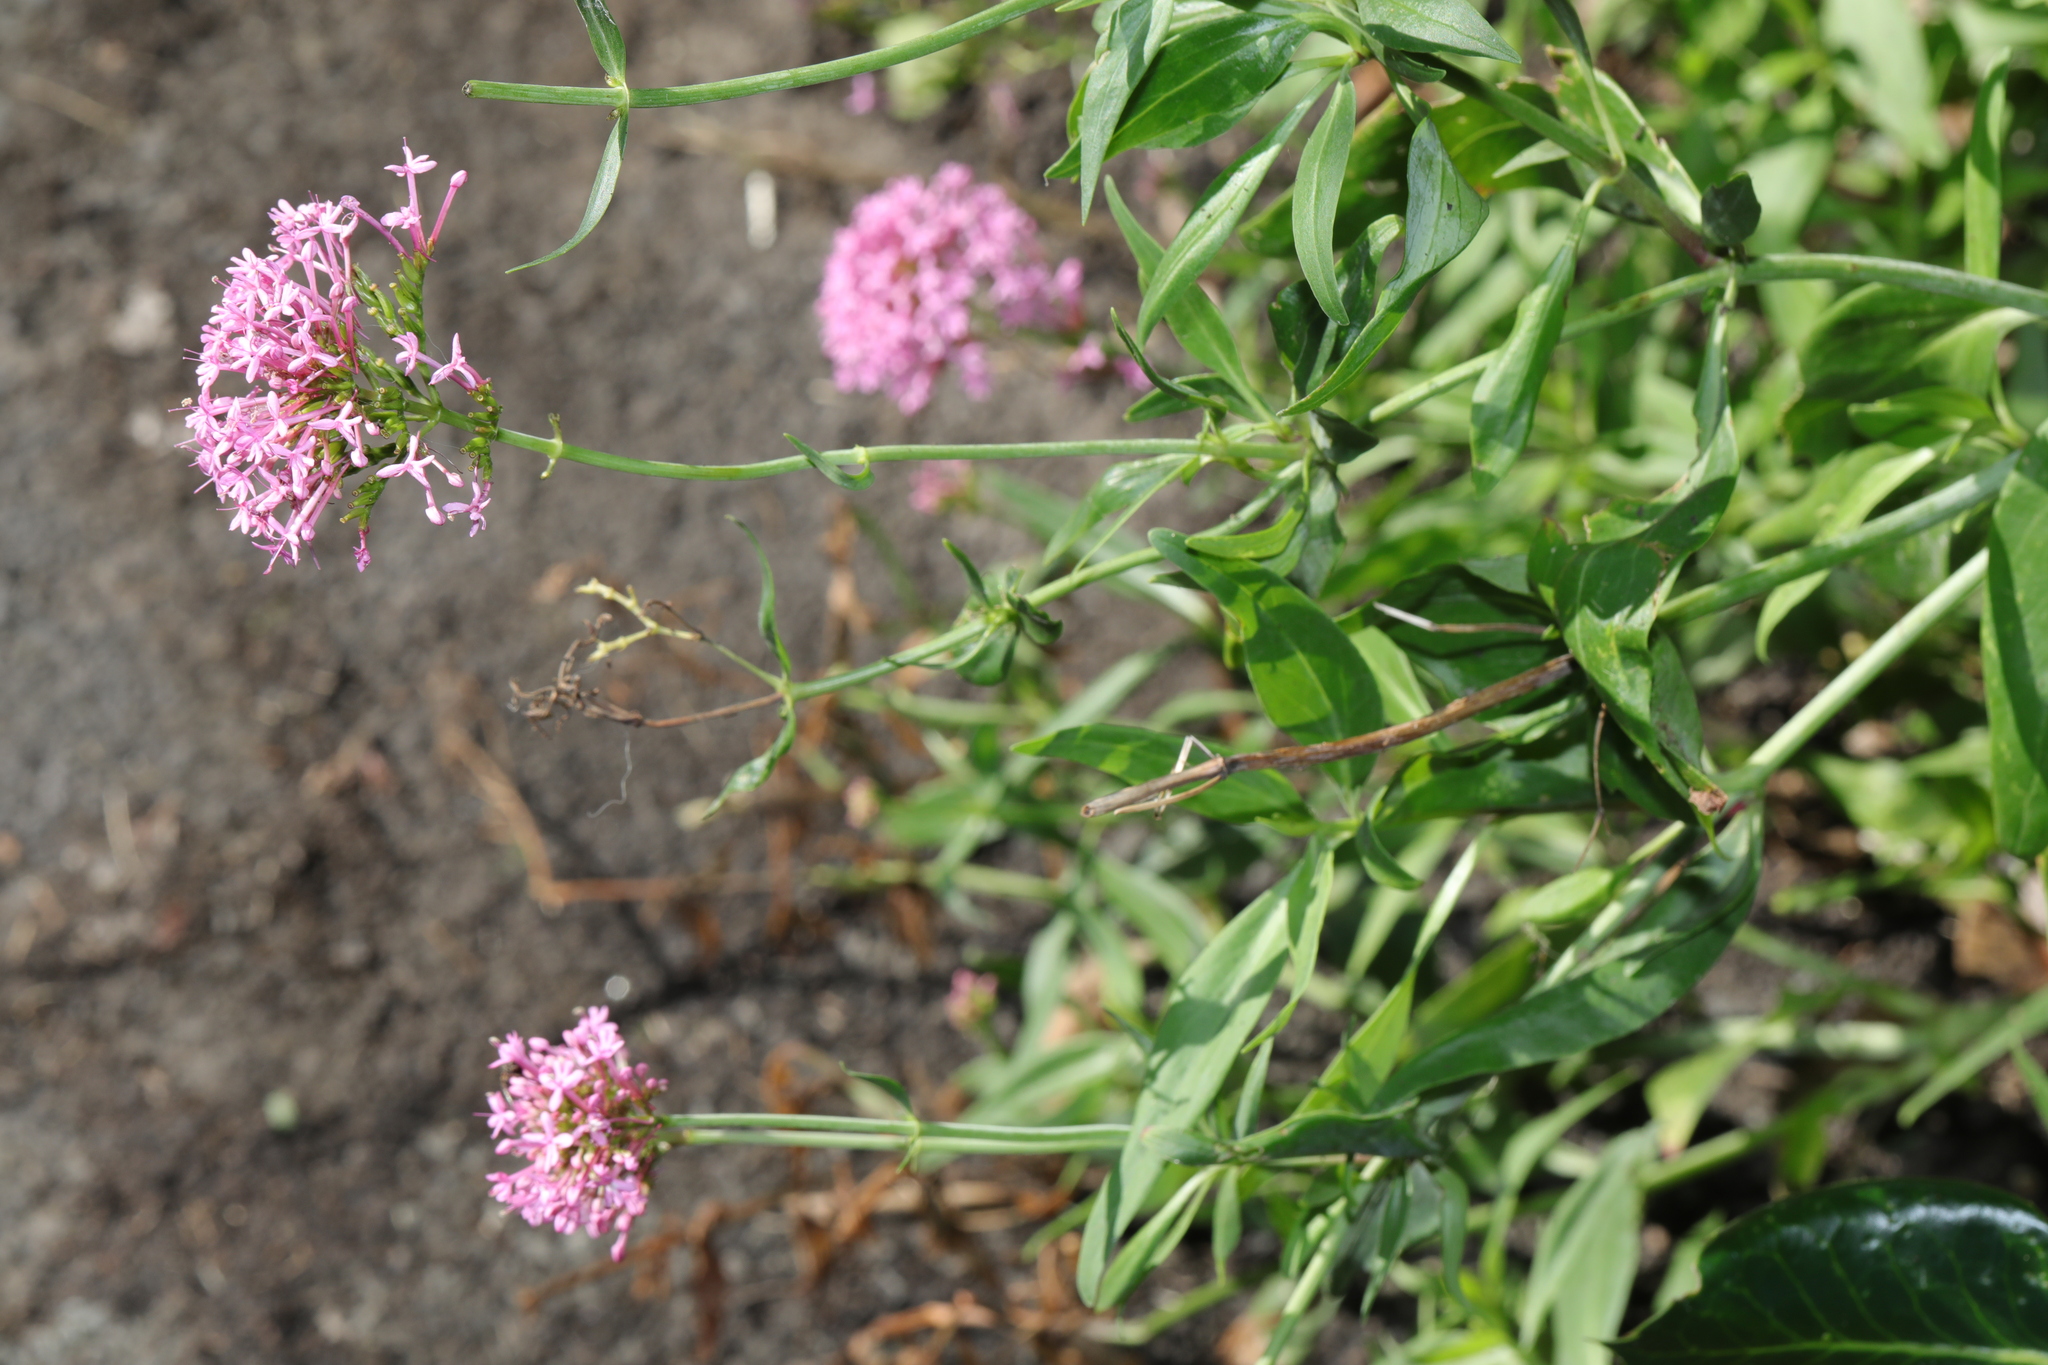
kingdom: Plantae
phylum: Tracheophyta
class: Magnoliopsida
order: Dipsacales
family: Caprifoliaceae
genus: Centranthus
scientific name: Centranthus ruber
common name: Red valerian
